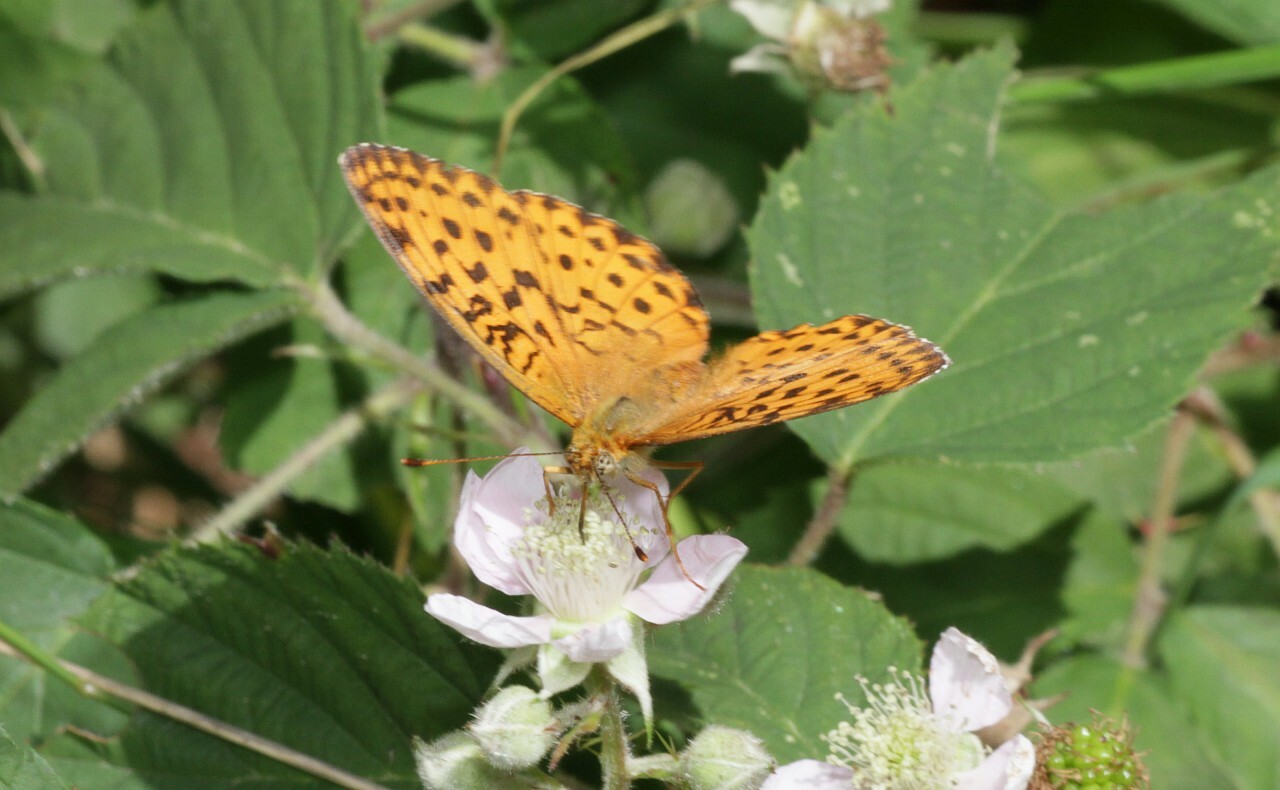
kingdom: Animalia
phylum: Arthropoda
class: Insecta
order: Lepidoptera
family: Nymphalidae
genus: Brenthis
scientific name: Brenthis daphne
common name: Marbled fritillary
